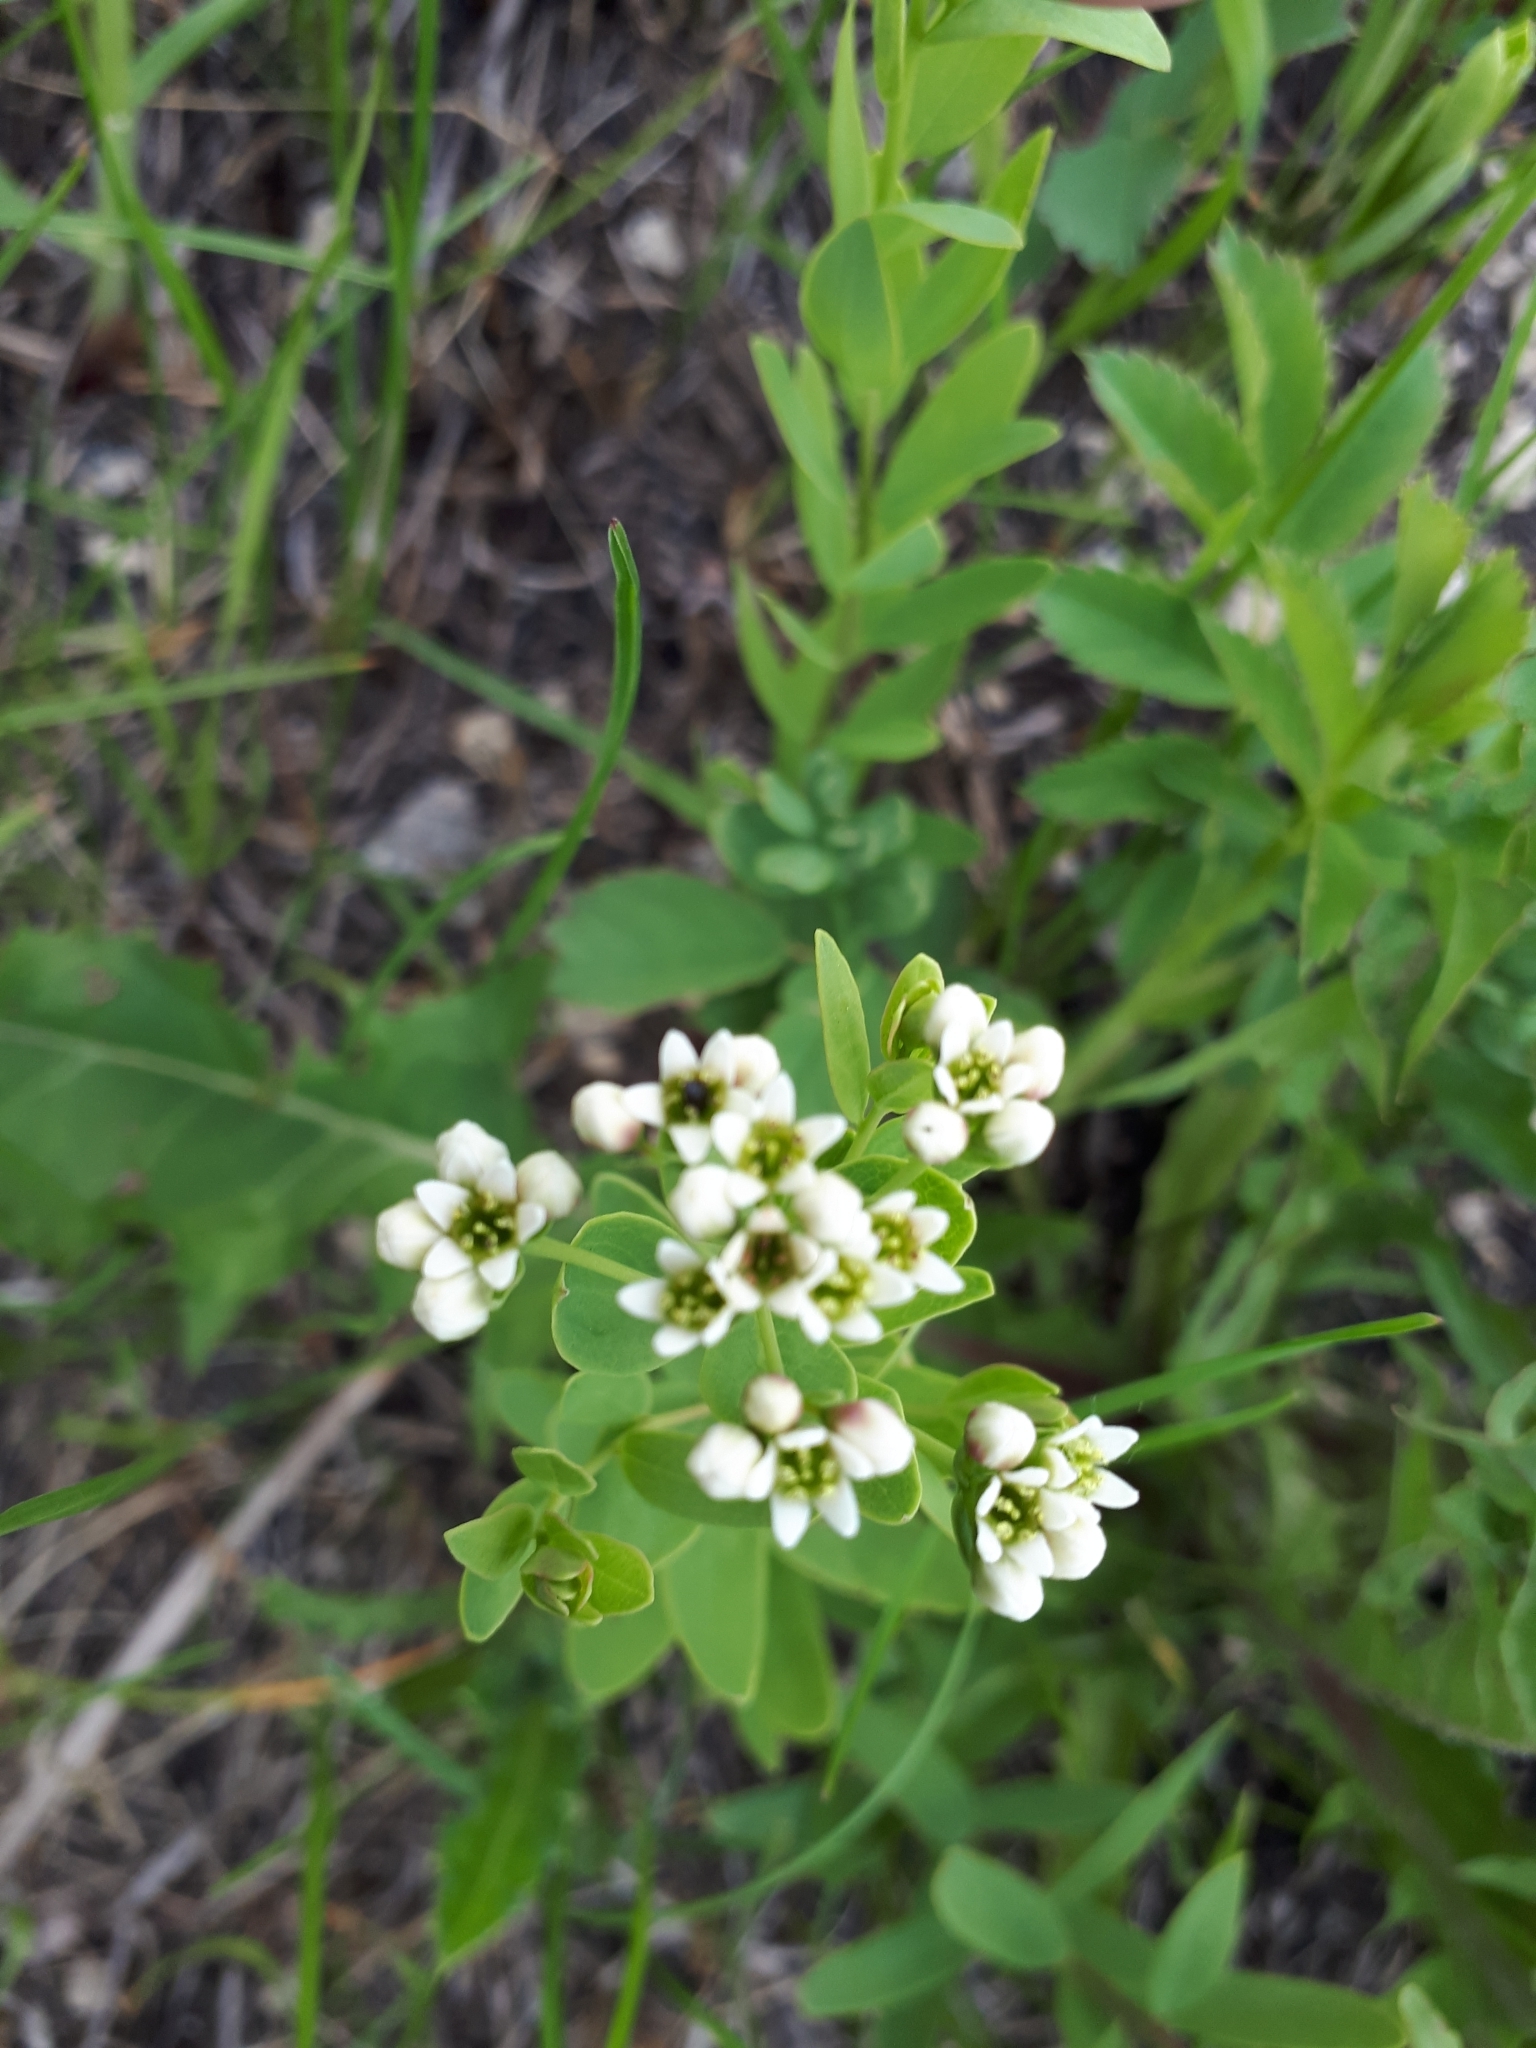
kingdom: Plantae
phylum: Tracheophyta
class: Magnoliopsida
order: Santalales
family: Comandraceae
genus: Comandra
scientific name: Comandra umbellata
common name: Bastard toadflax
